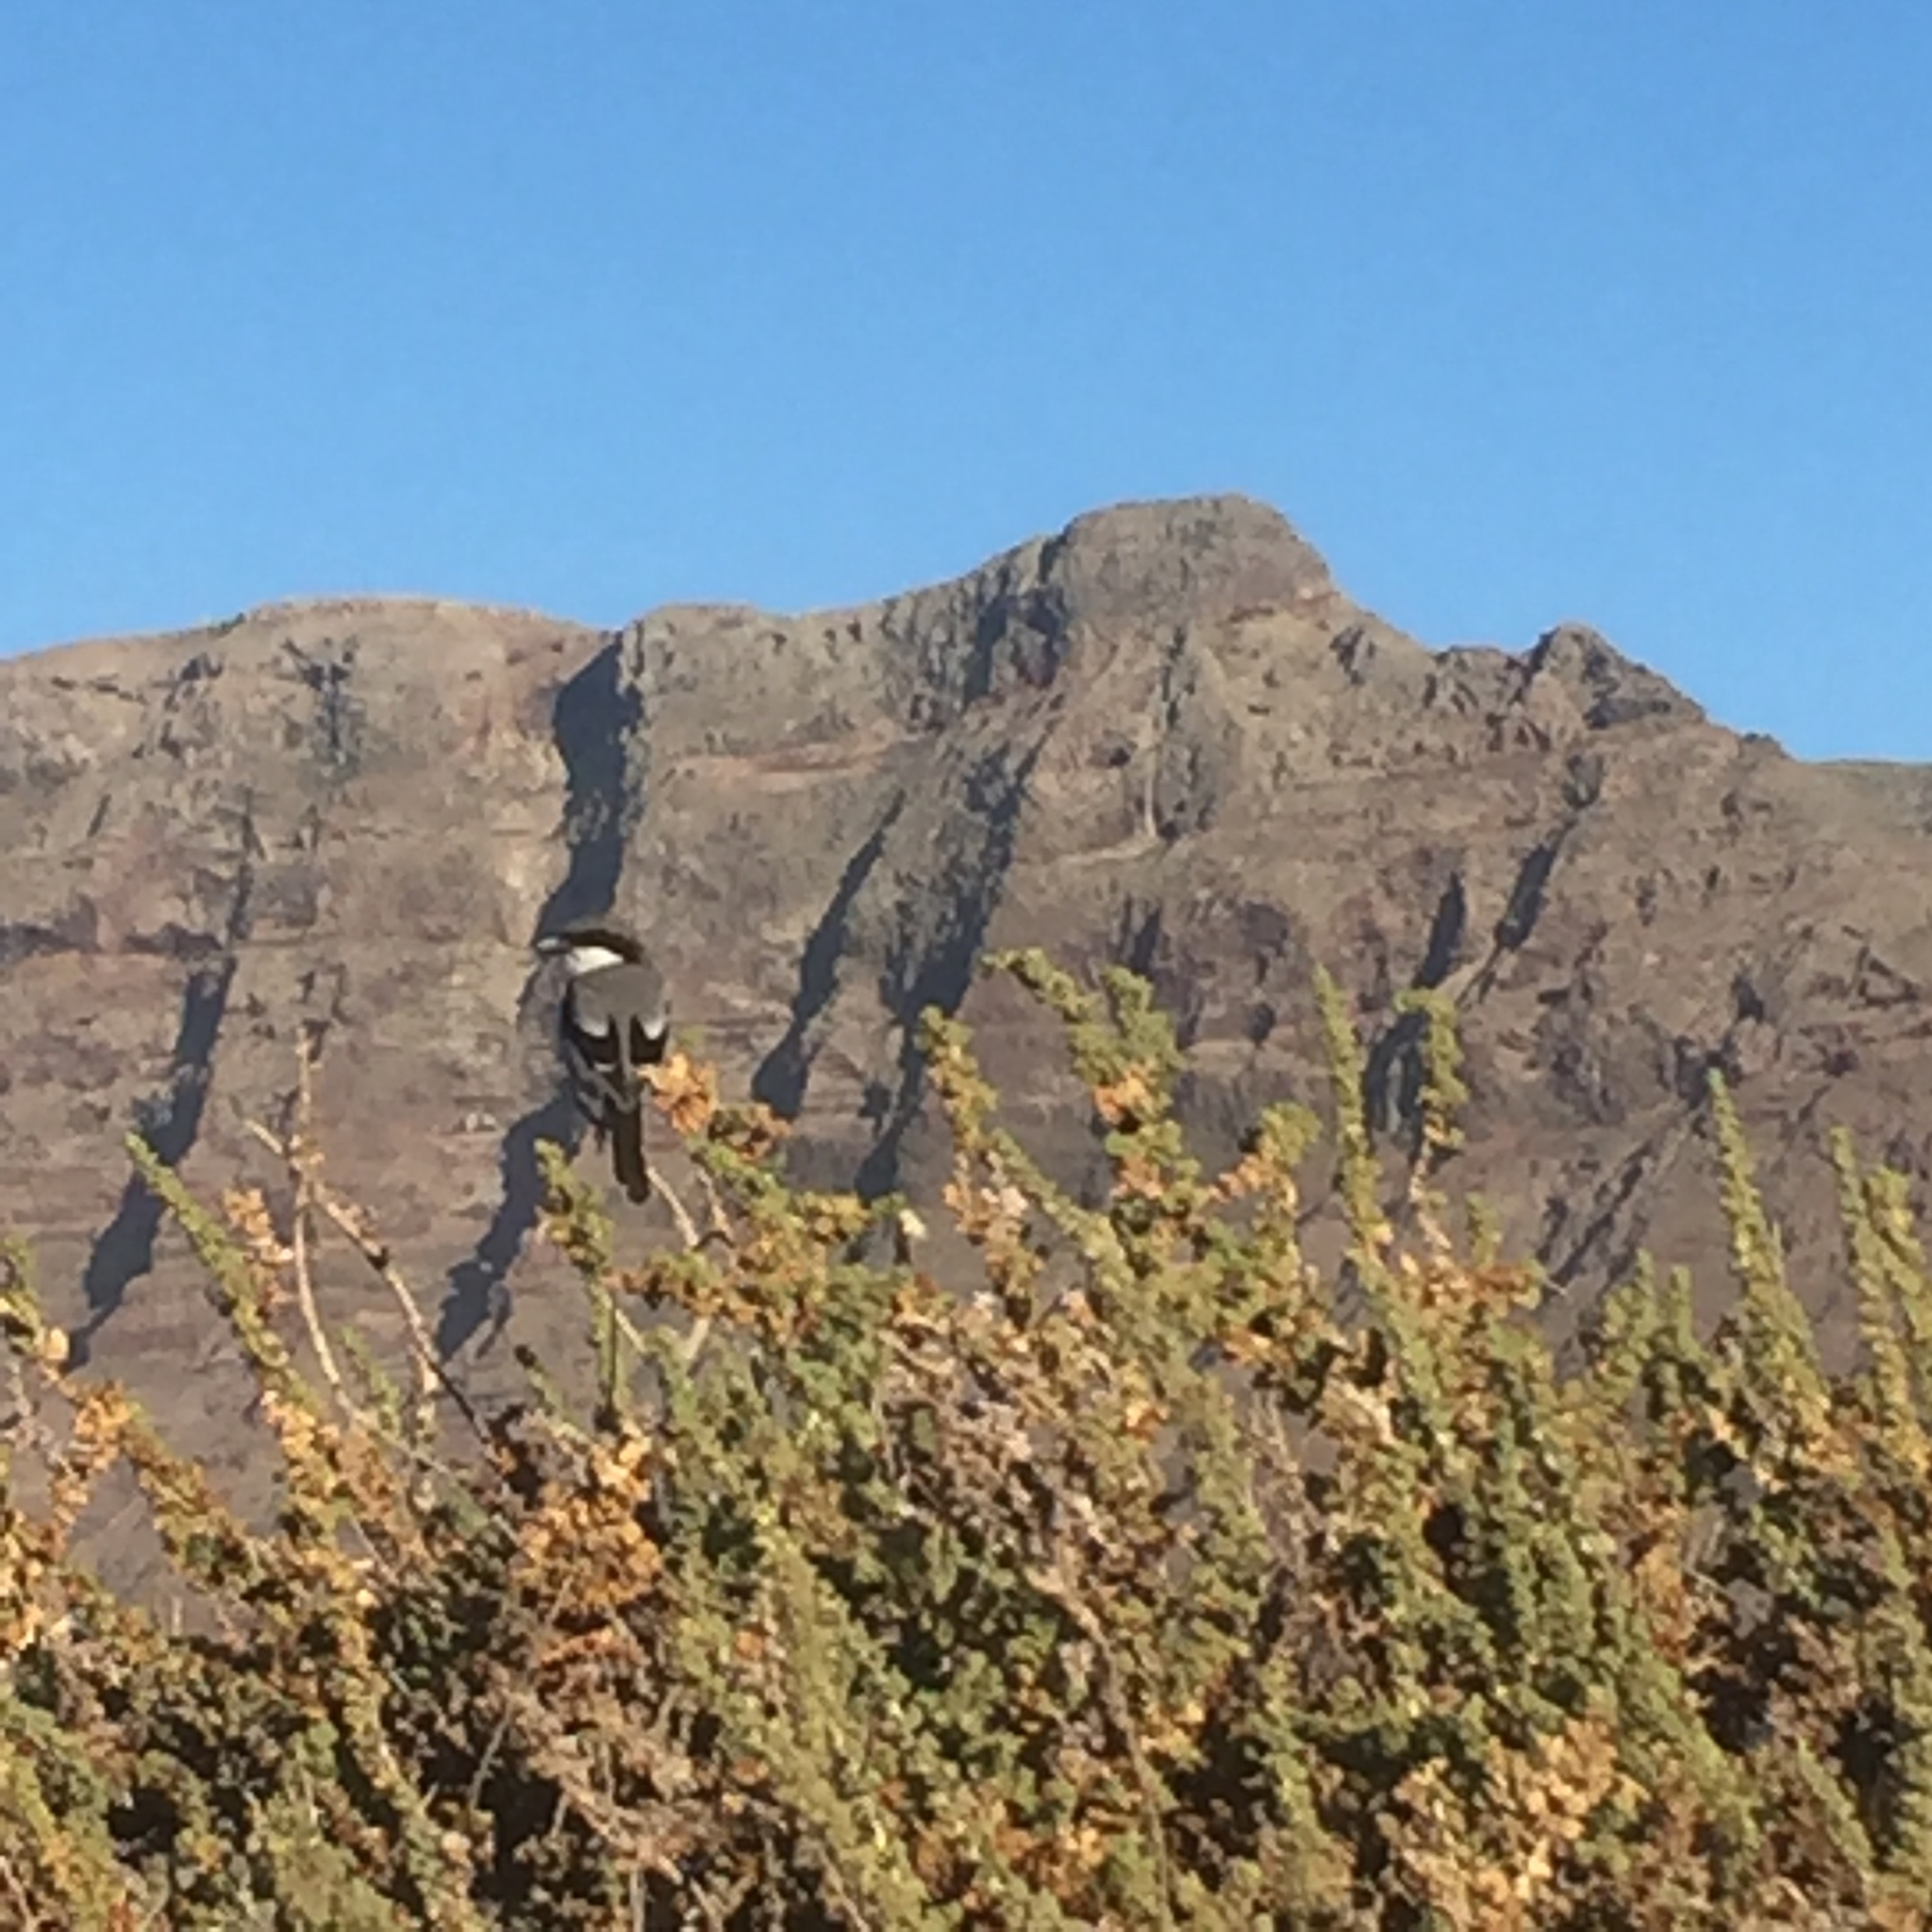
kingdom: Animalia
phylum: Chordata
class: Aves
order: Passeriformes
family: Laniidae
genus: Lanius
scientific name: Lanius excubitor
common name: Great grey shrike
